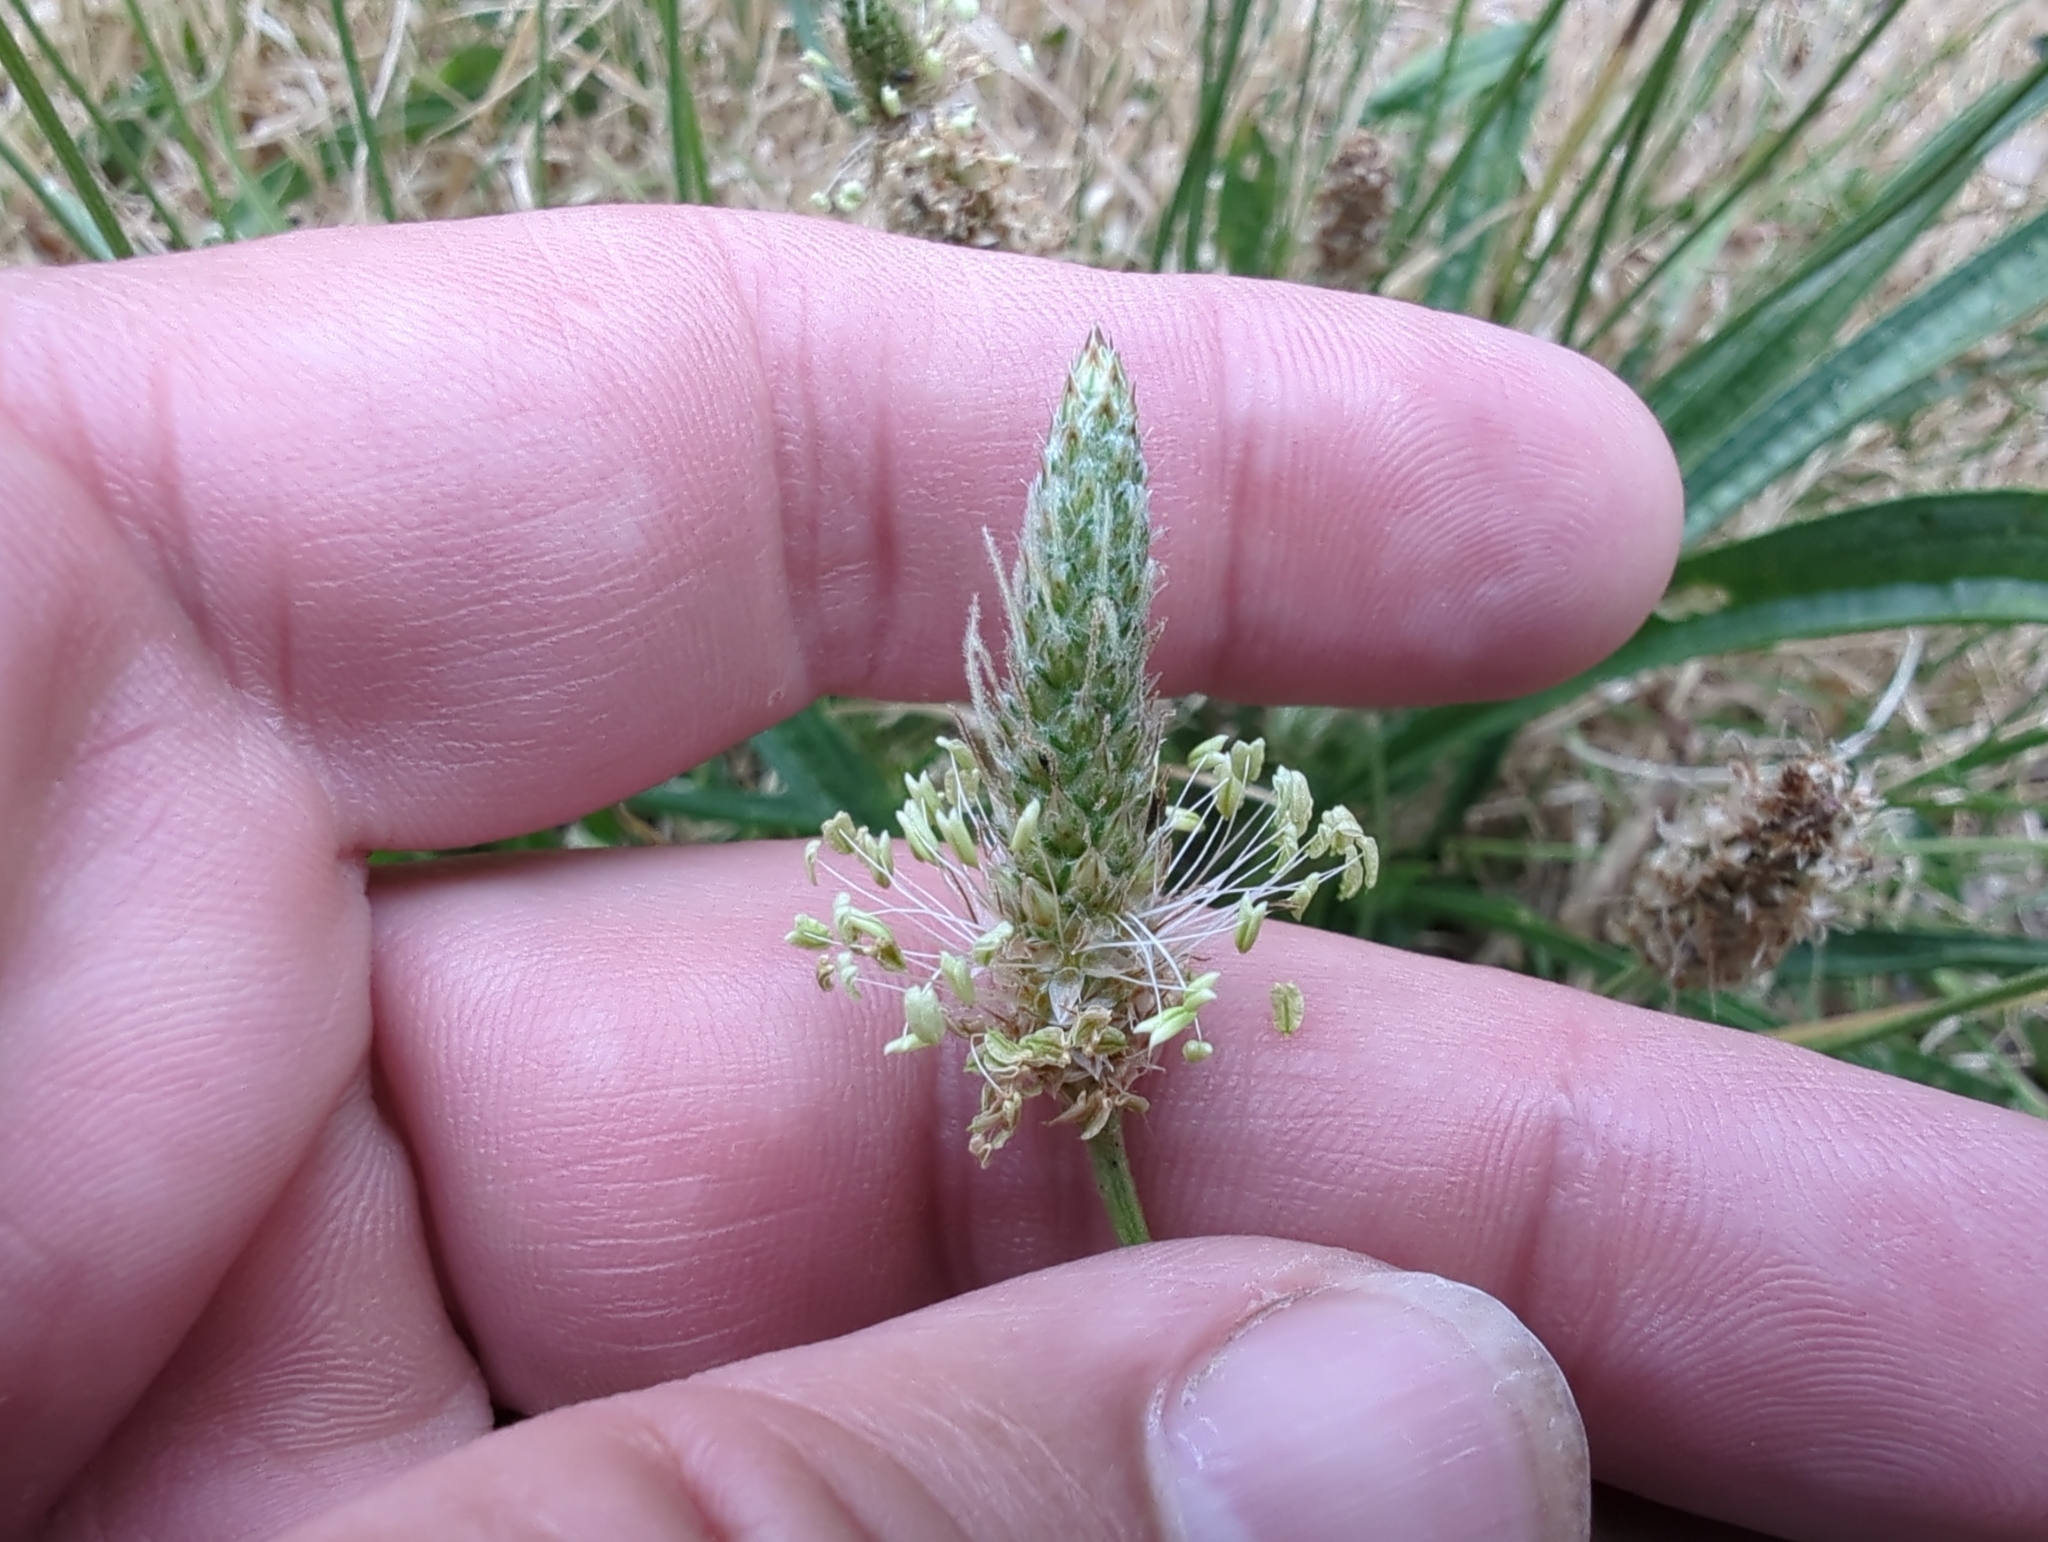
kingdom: Animalia
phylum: Arthropoda
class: Insecta
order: Hemiptera
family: Pentatomidae
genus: Halyomorpha
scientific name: Halyomorpha halys
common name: Brown marmorated stink bug
